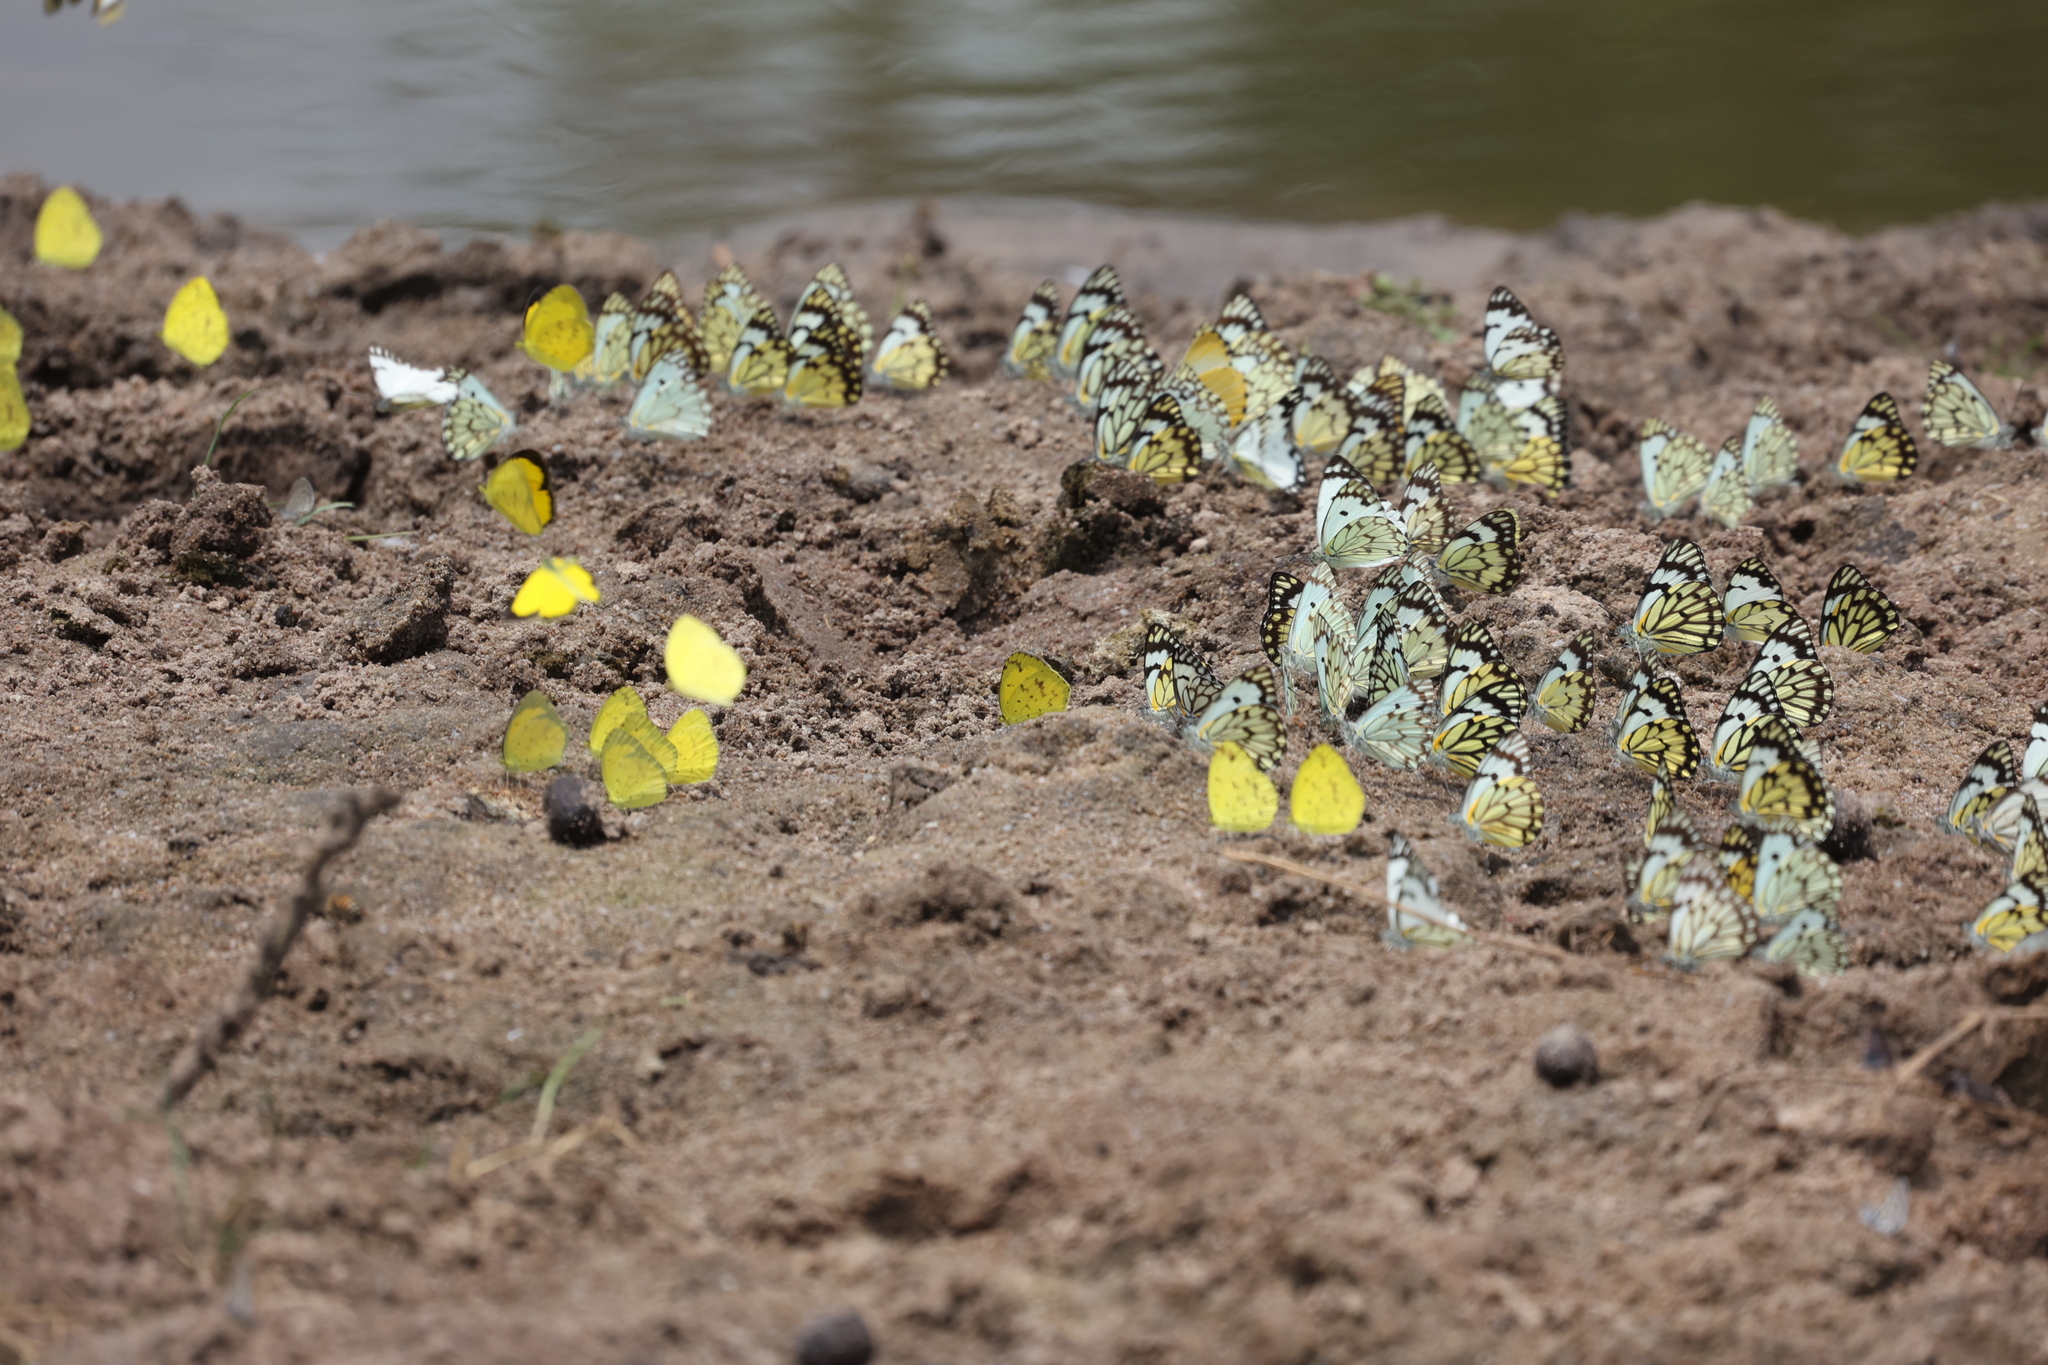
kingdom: Animalia
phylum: Arthropoda
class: Insecta
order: Lepidoptera
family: Pieridae
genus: Belenois
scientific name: Belenois crawshayi
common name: Crawshay's caper white
